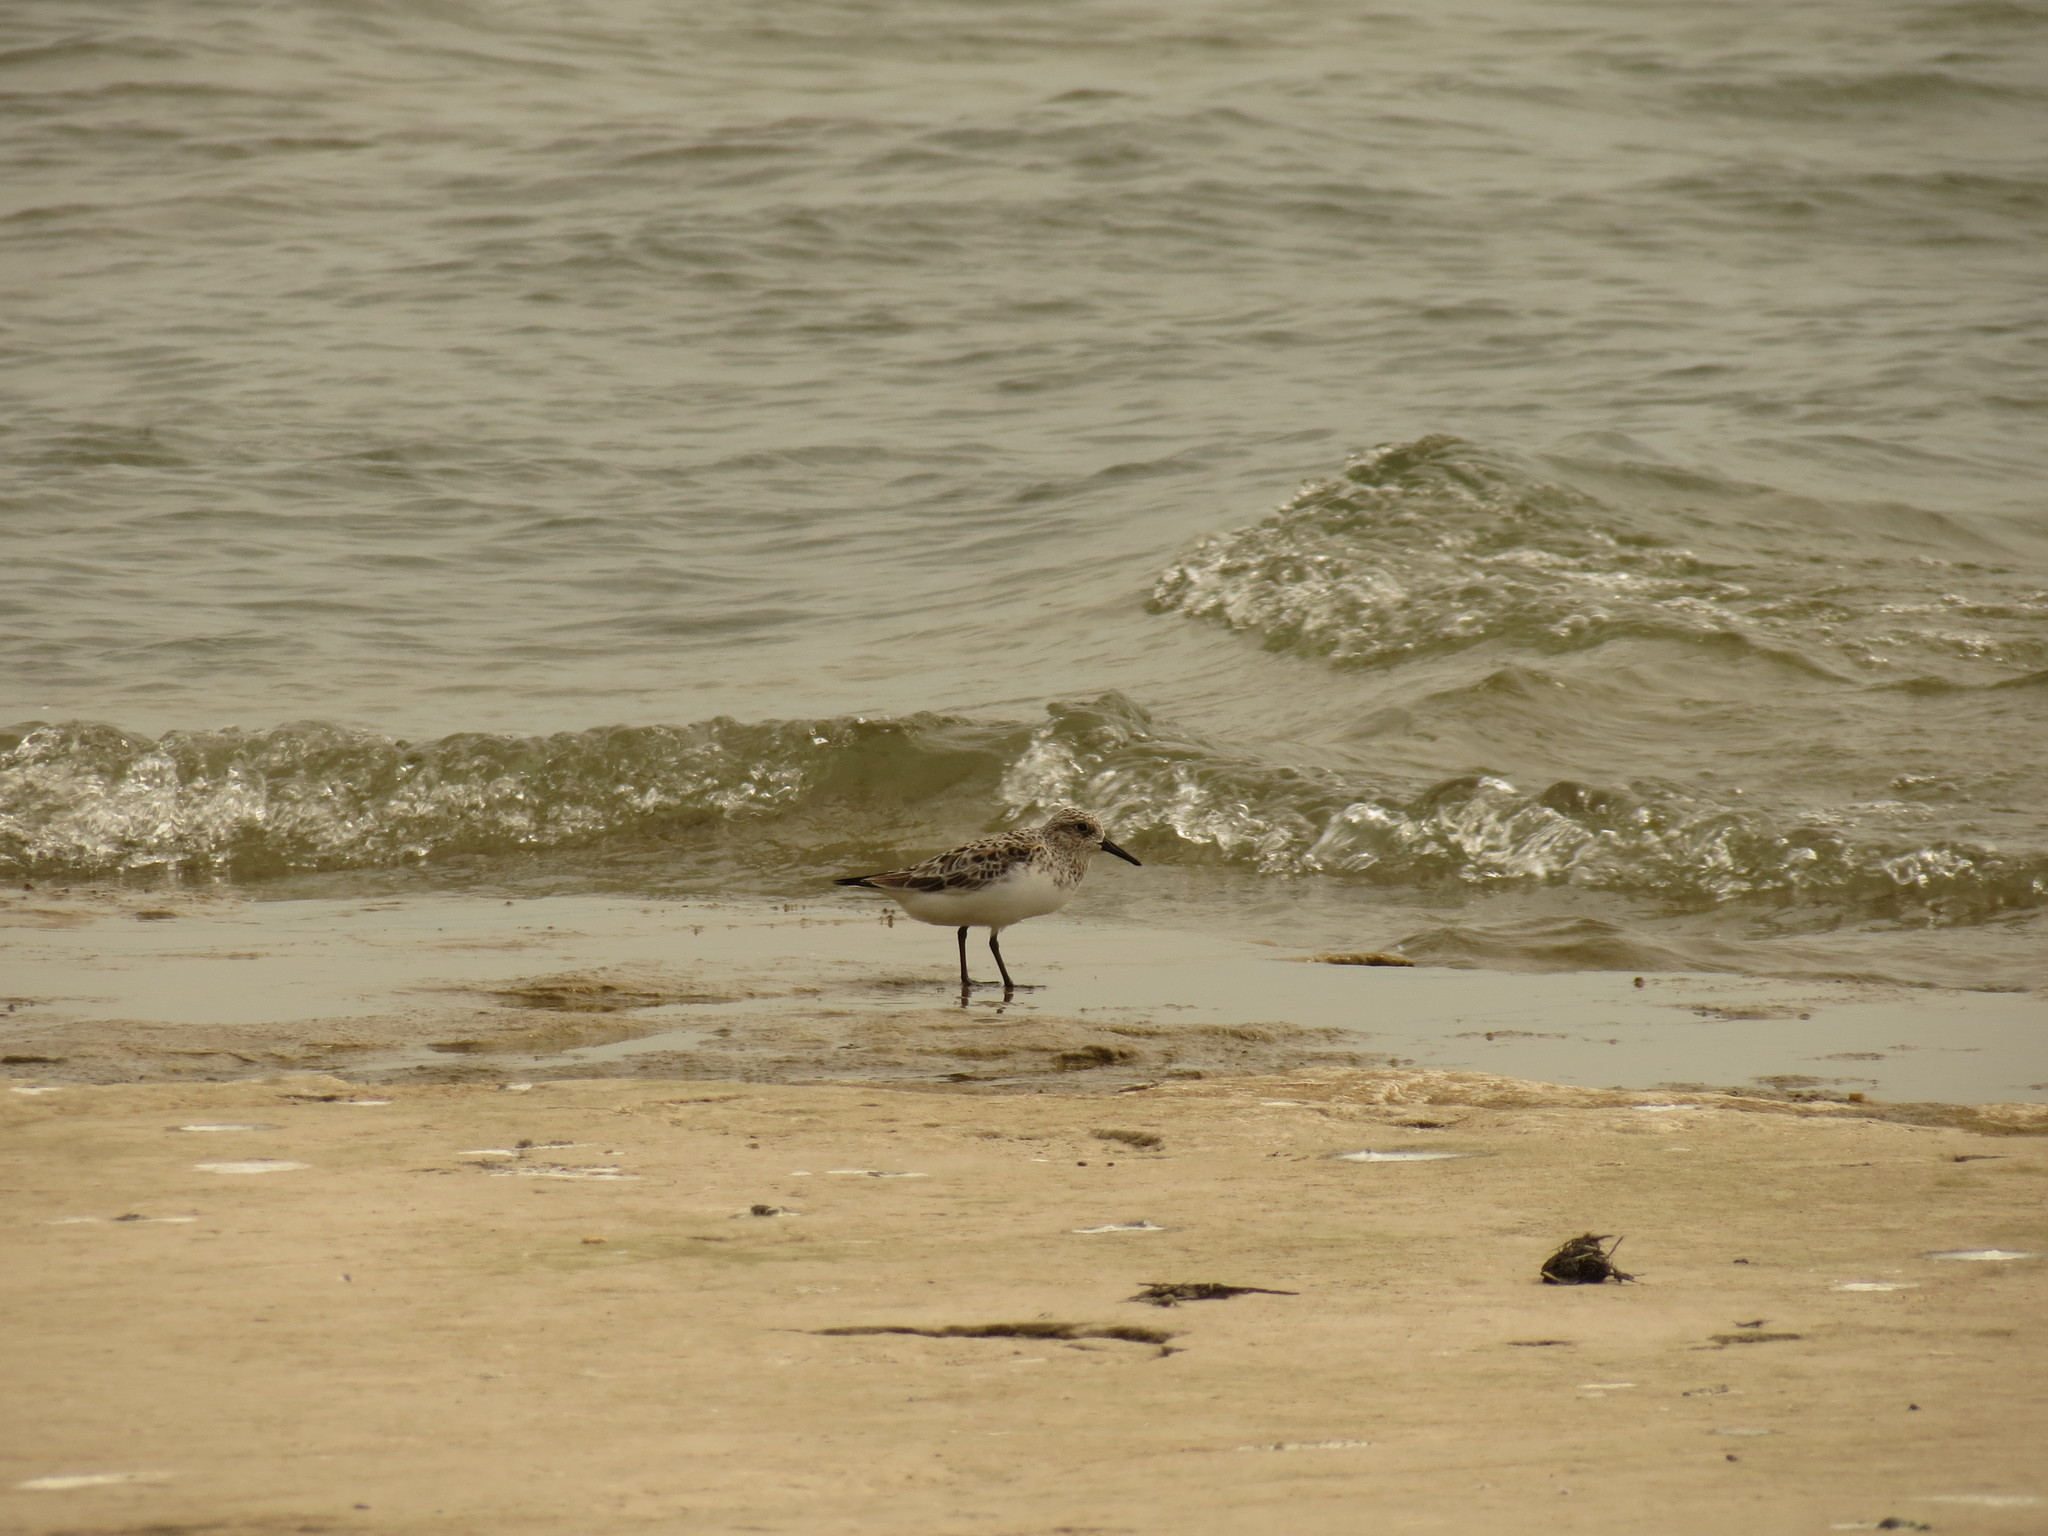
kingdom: Animalia
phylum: Chordata
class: Aves
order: Charadriiformes
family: Scolopacidae
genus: Calidris
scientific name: Calidris alba
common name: Sanderling
